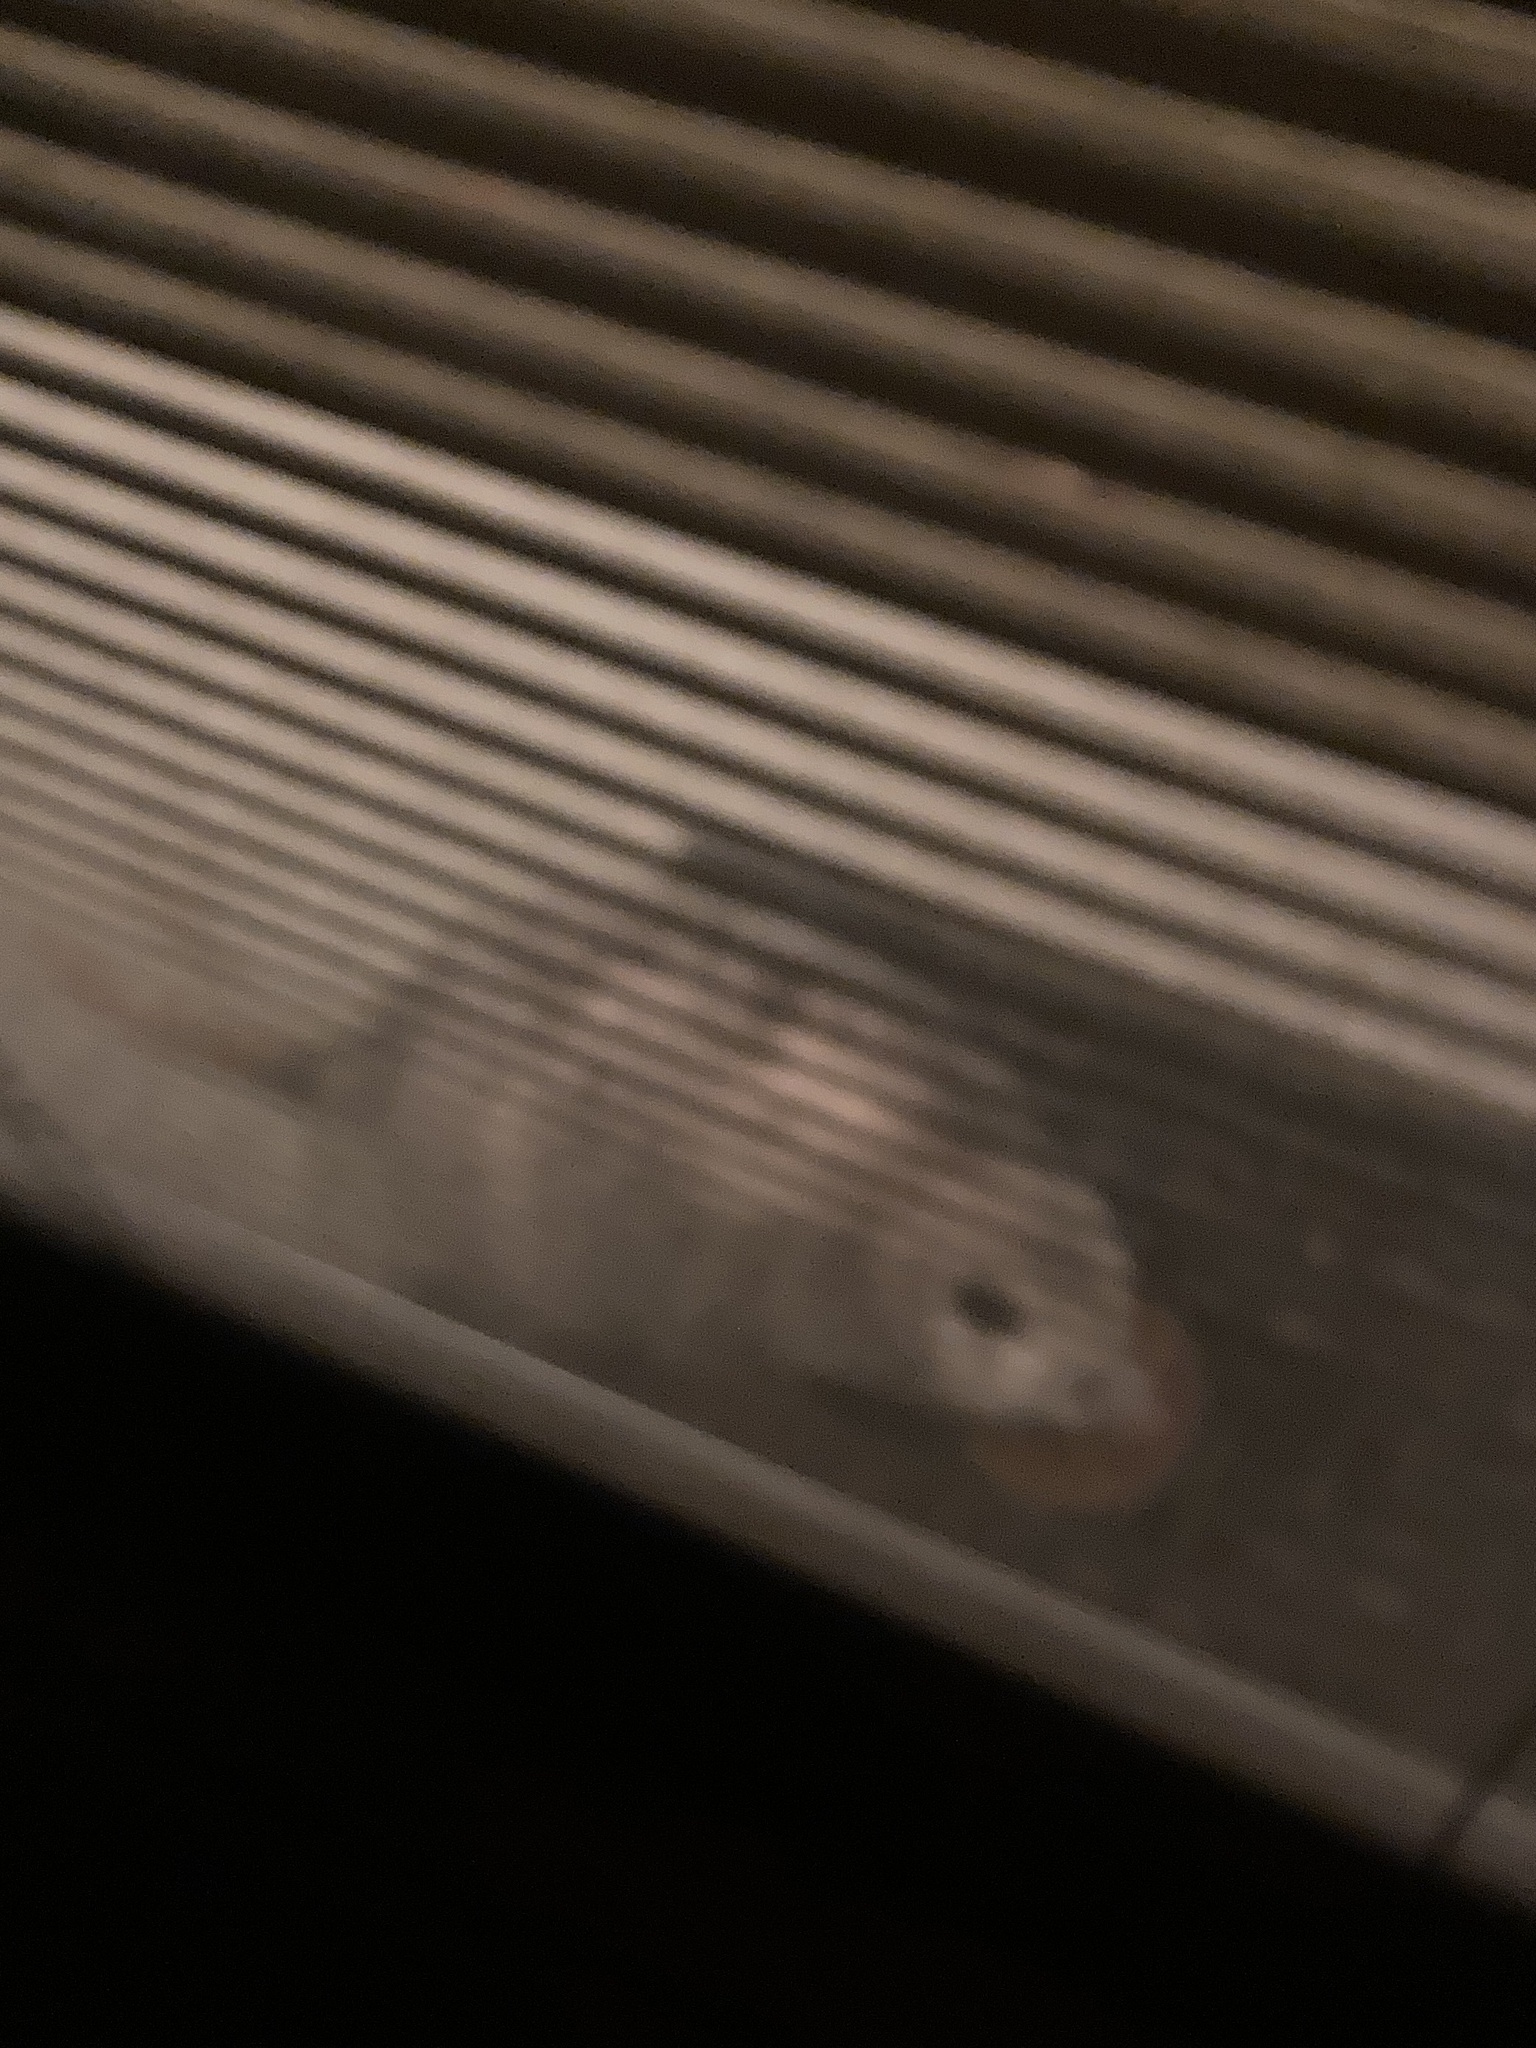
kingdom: Animalia
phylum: Chordata
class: Mammalia
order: Didelphimorphia
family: Didelphidae
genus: Didelphis
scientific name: Didelphis virginiana
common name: Virginia opossum
